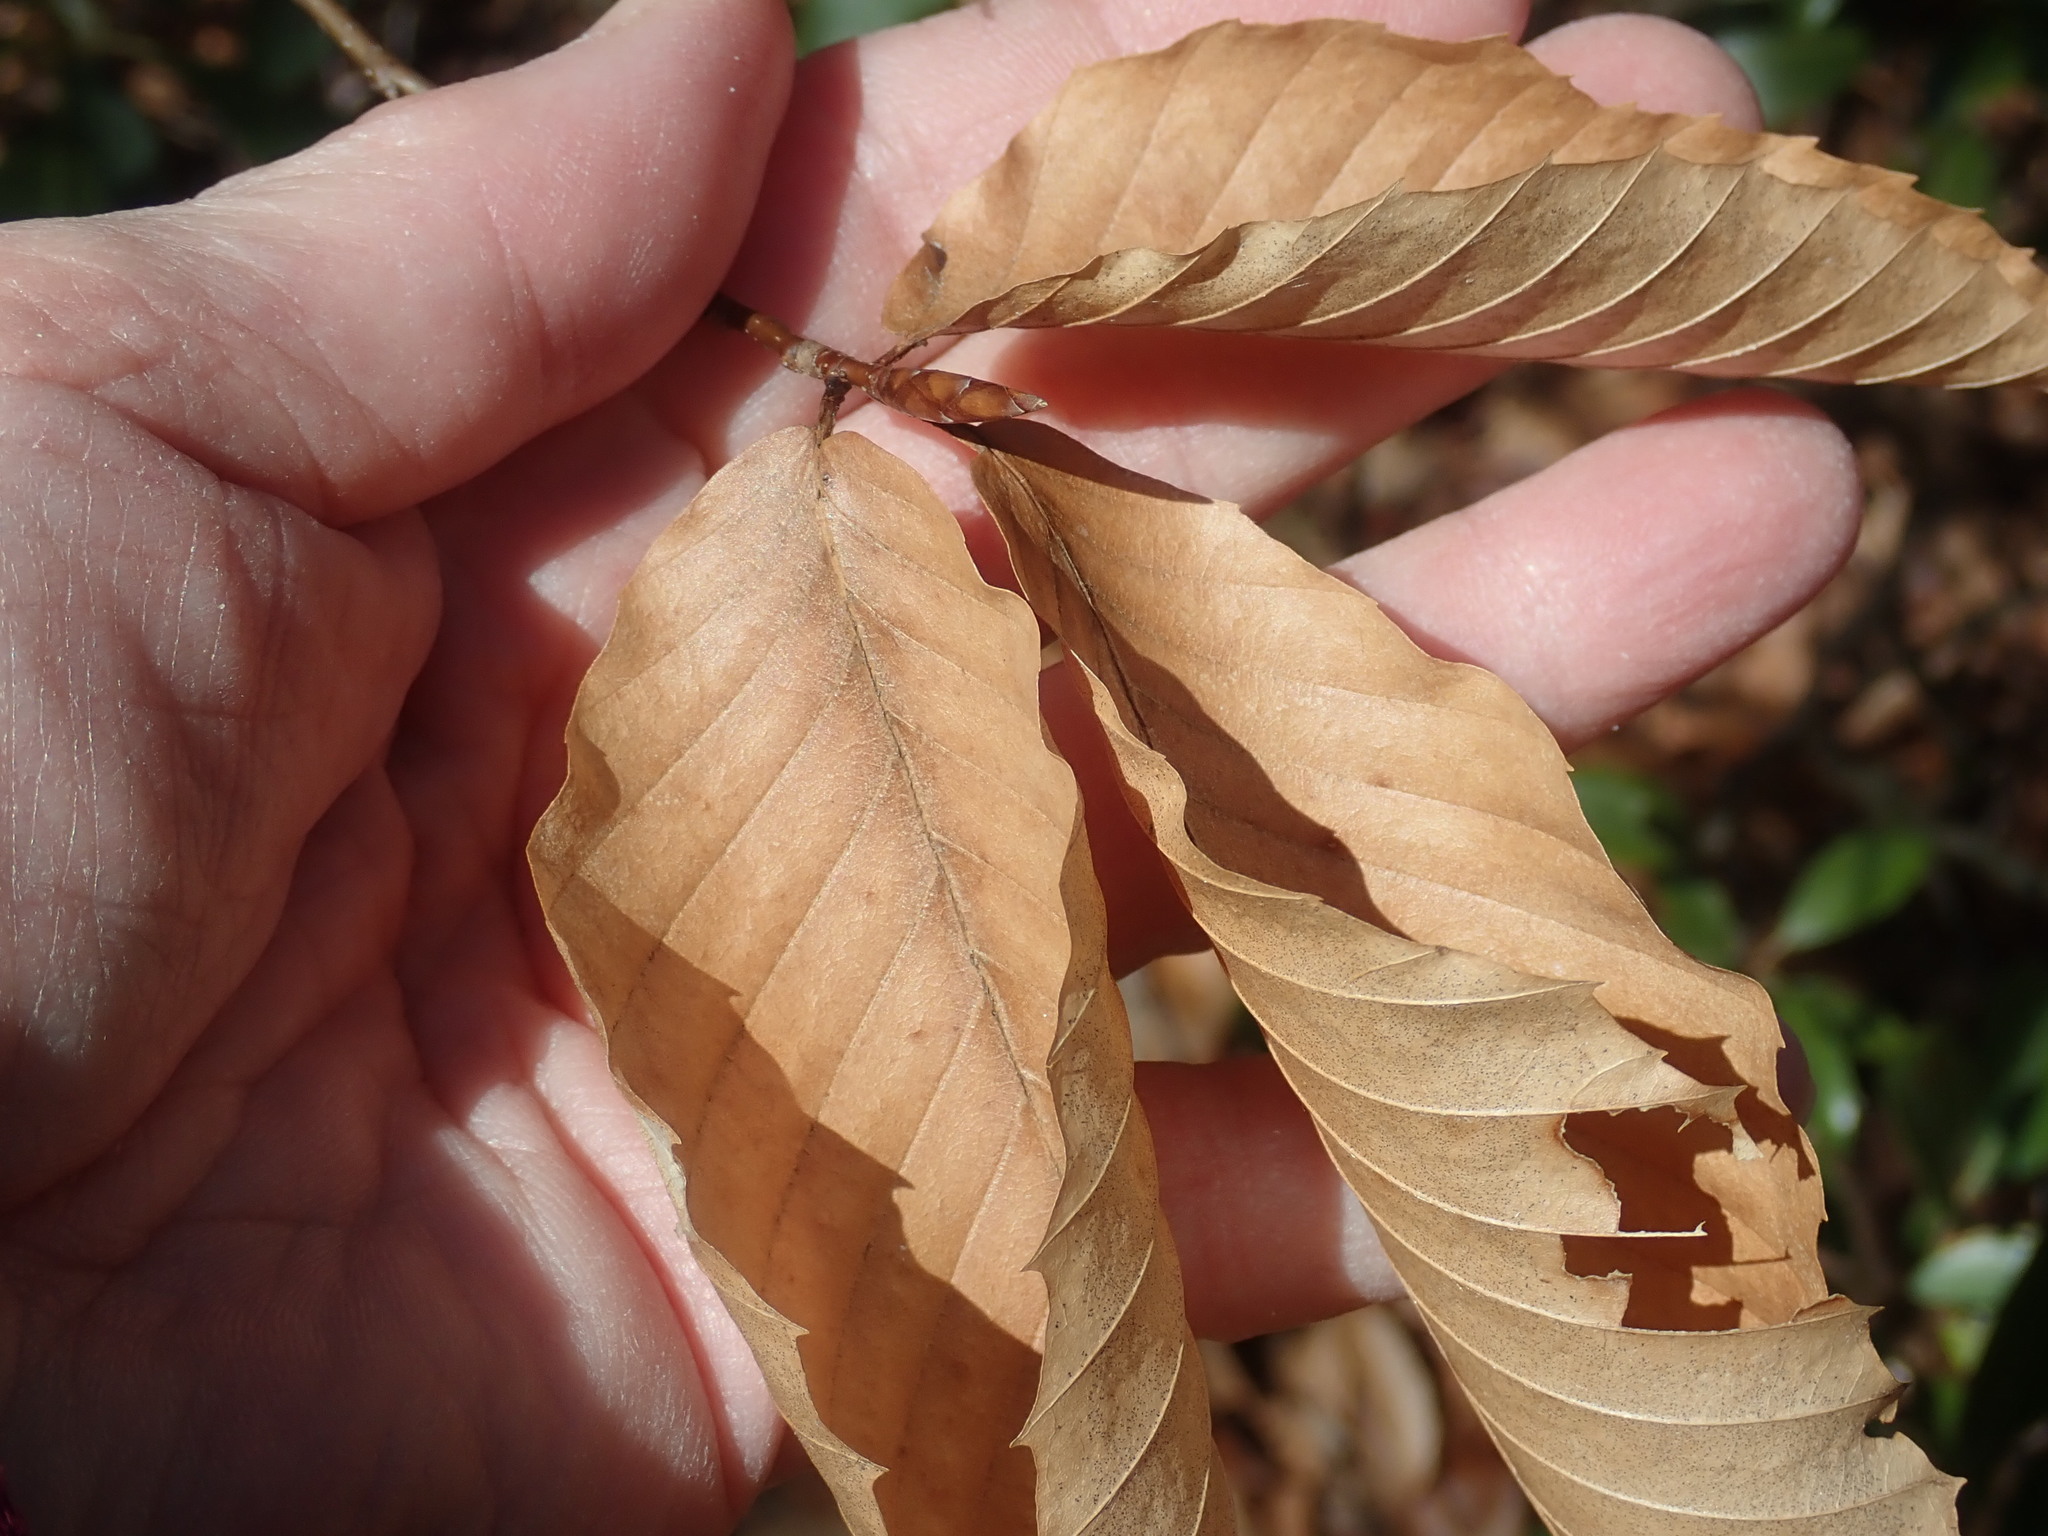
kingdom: Plantae
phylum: Tracheophyta
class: Magnoliopsida
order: Fagales
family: Fagaceae
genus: Fagus
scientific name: Fagus grandifolia
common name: American beech
